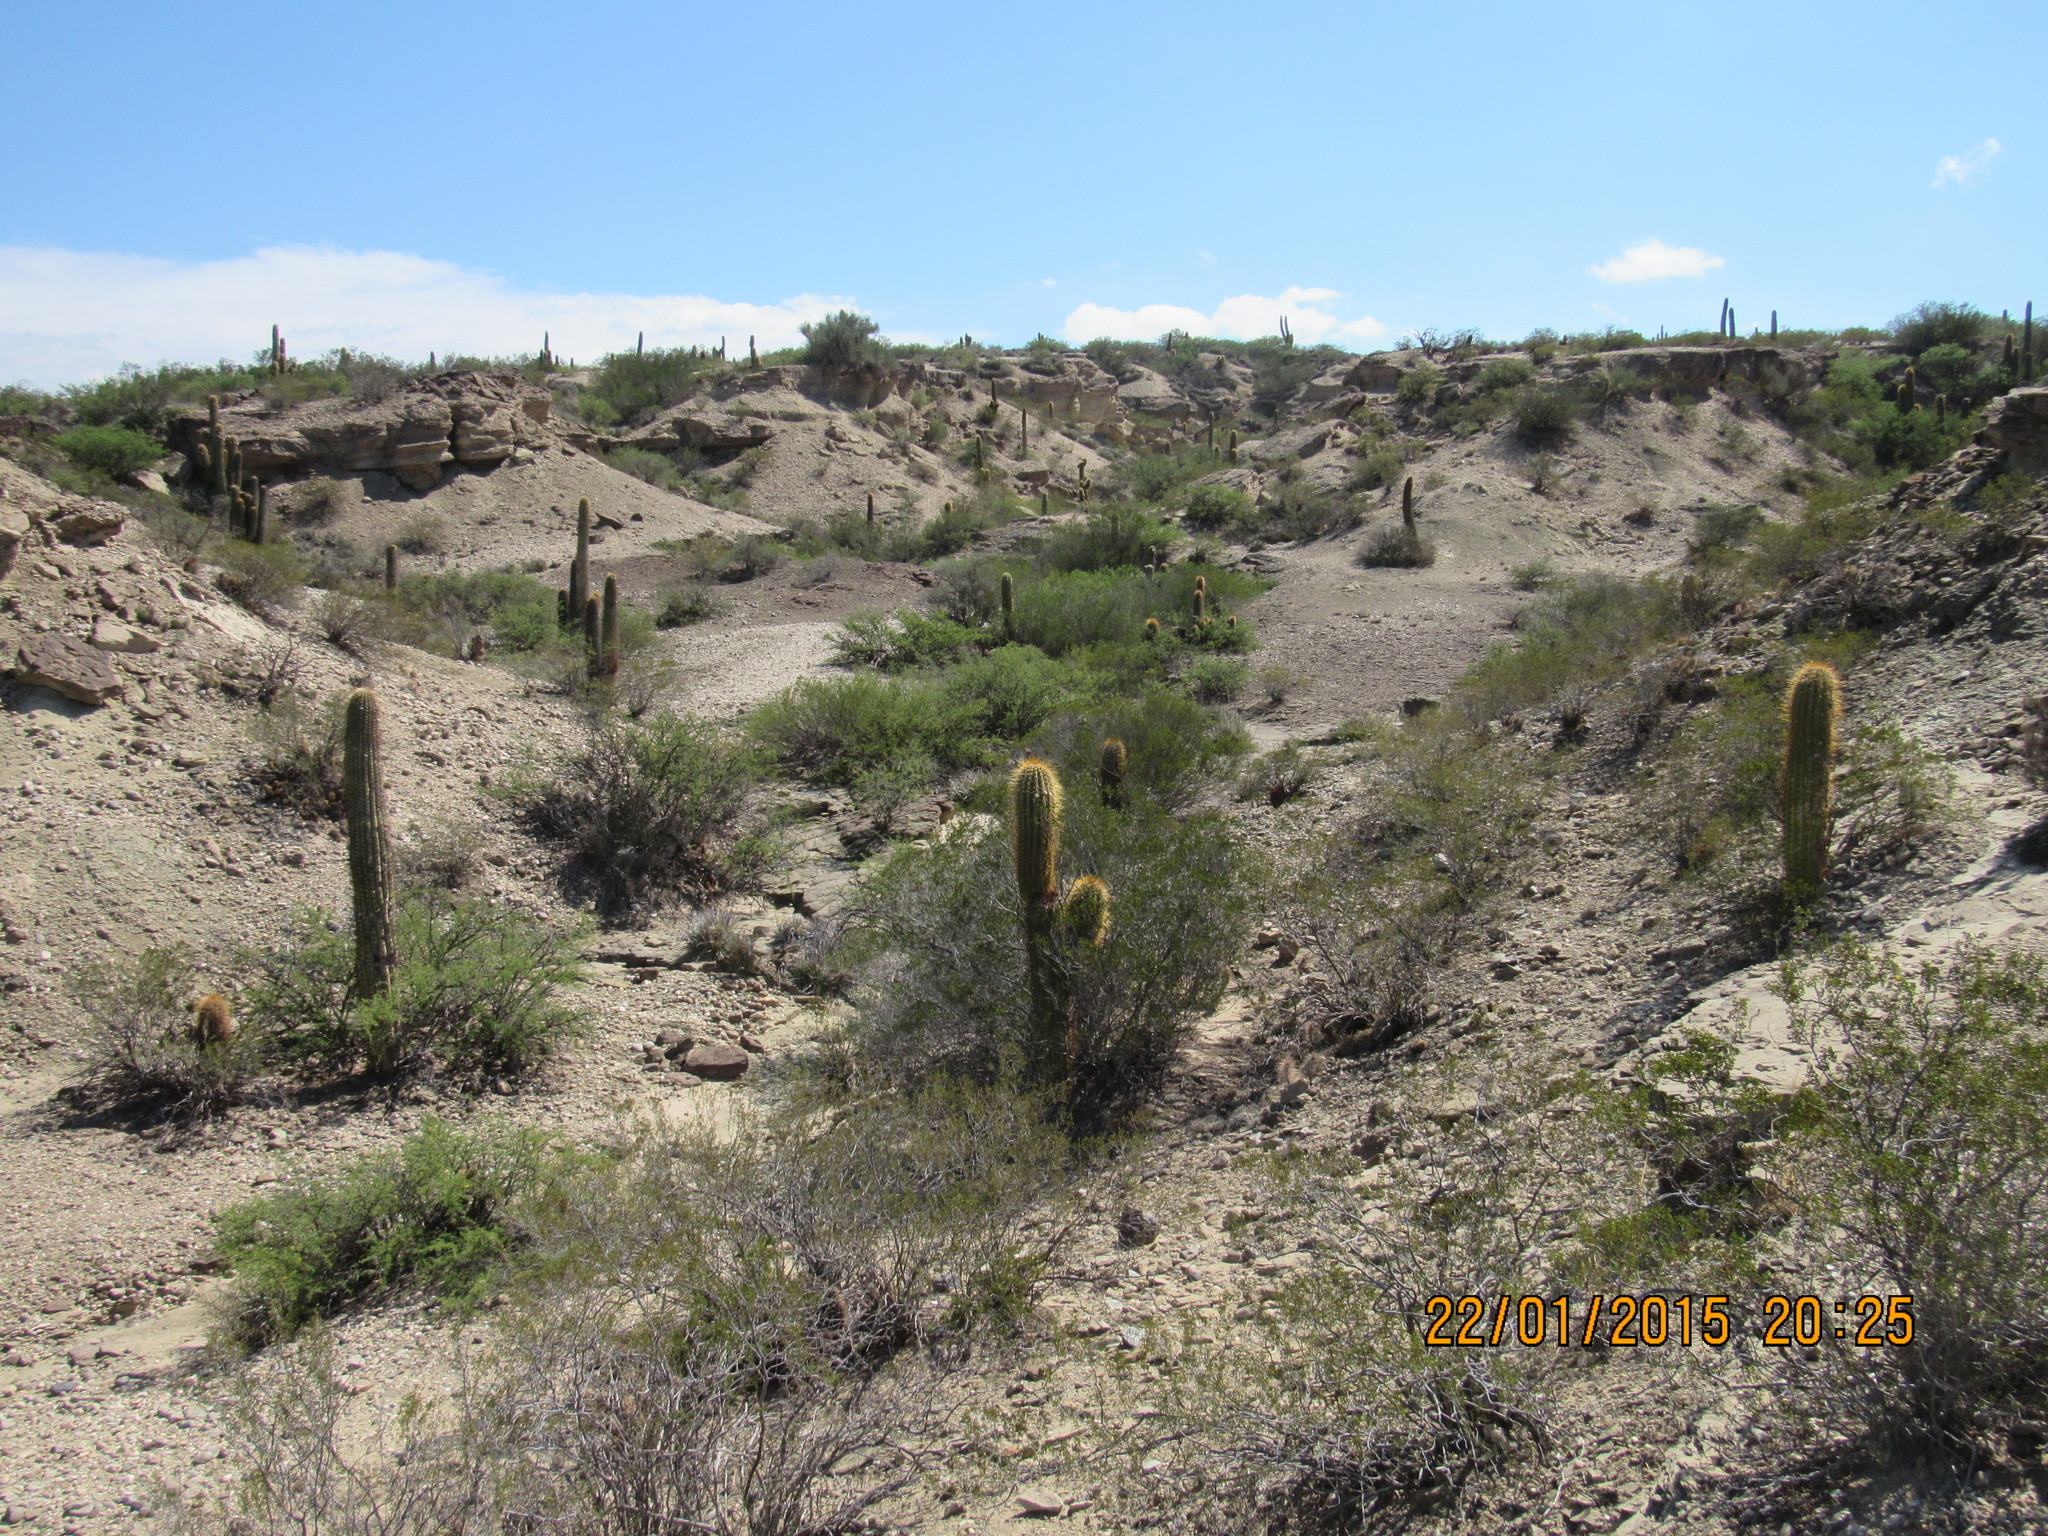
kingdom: Plantae
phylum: Tracheophyta
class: Magnoliopsida
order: Caryophyllales
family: Cactaceae
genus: Leucostele
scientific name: Leucostele terscheckii
